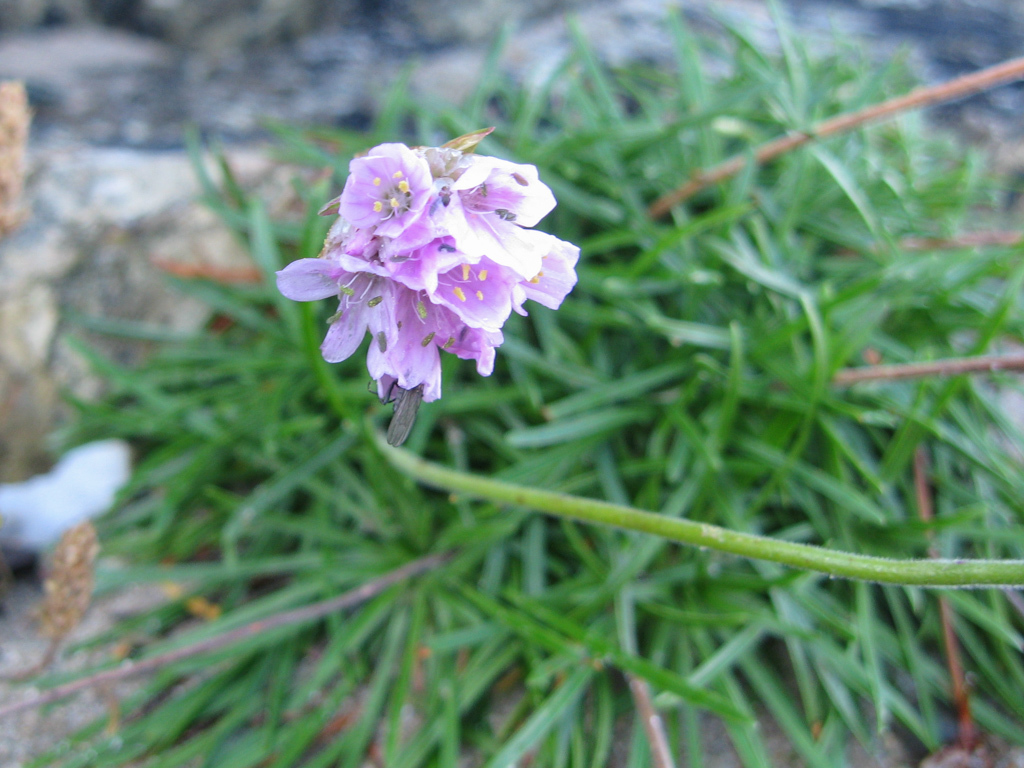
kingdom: Plantae
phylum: Tracheophyta
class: Magnoliopsida
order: Caryophyllales
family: Plumbaginaceae
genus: Armeria
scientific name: Armeria maritima
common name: Thrift
